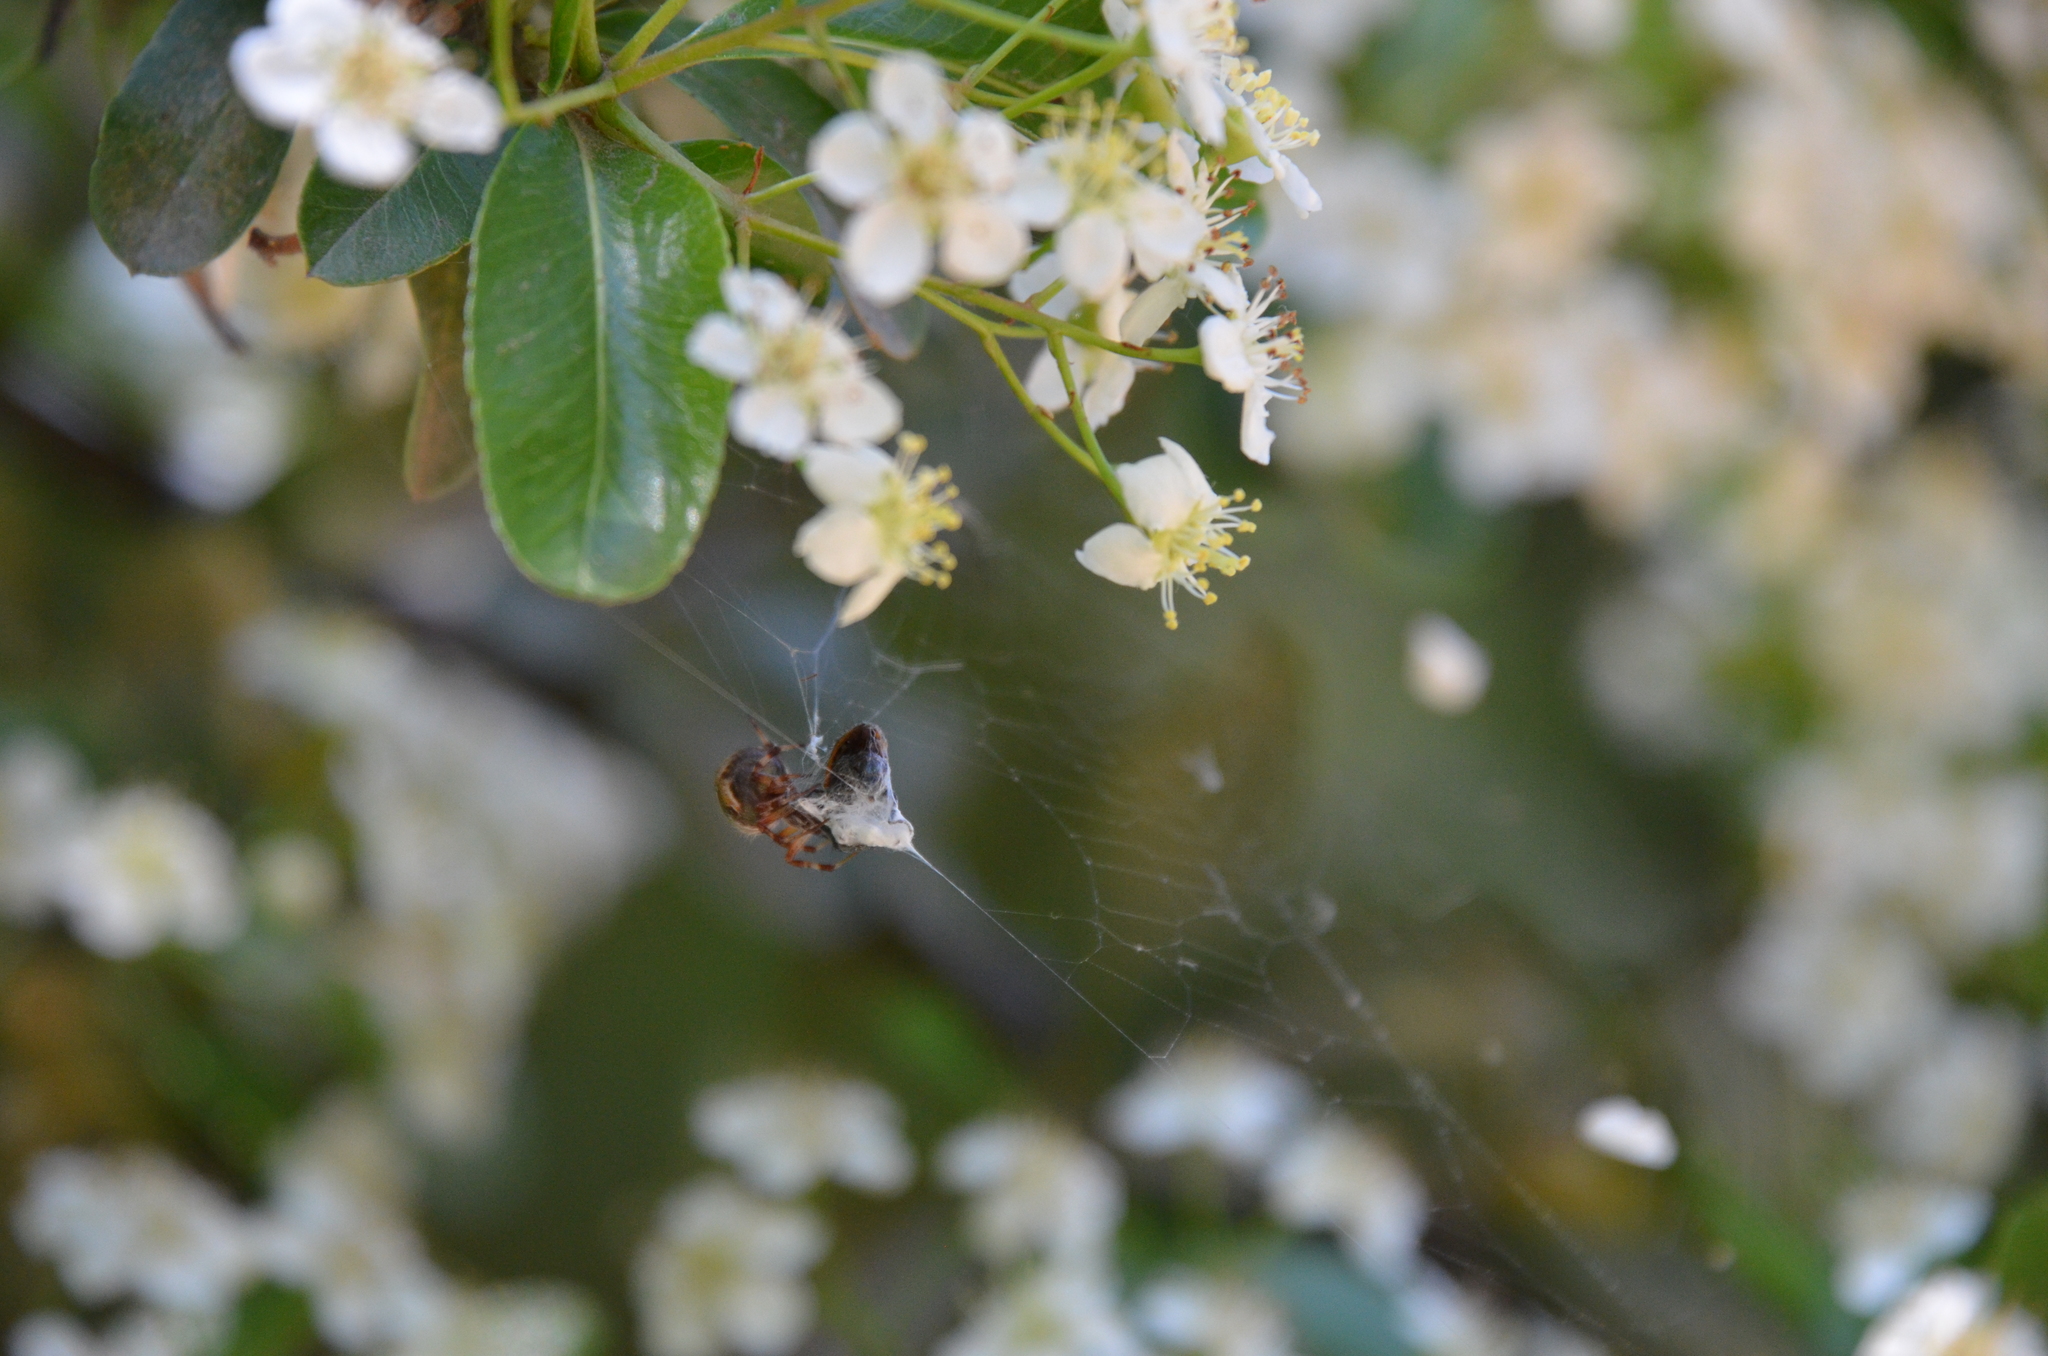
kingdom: Animalia
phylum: Arthropoda
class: Arachnida
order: Araneae
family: Araneidae
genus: Metepeira
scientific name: Metepeira
